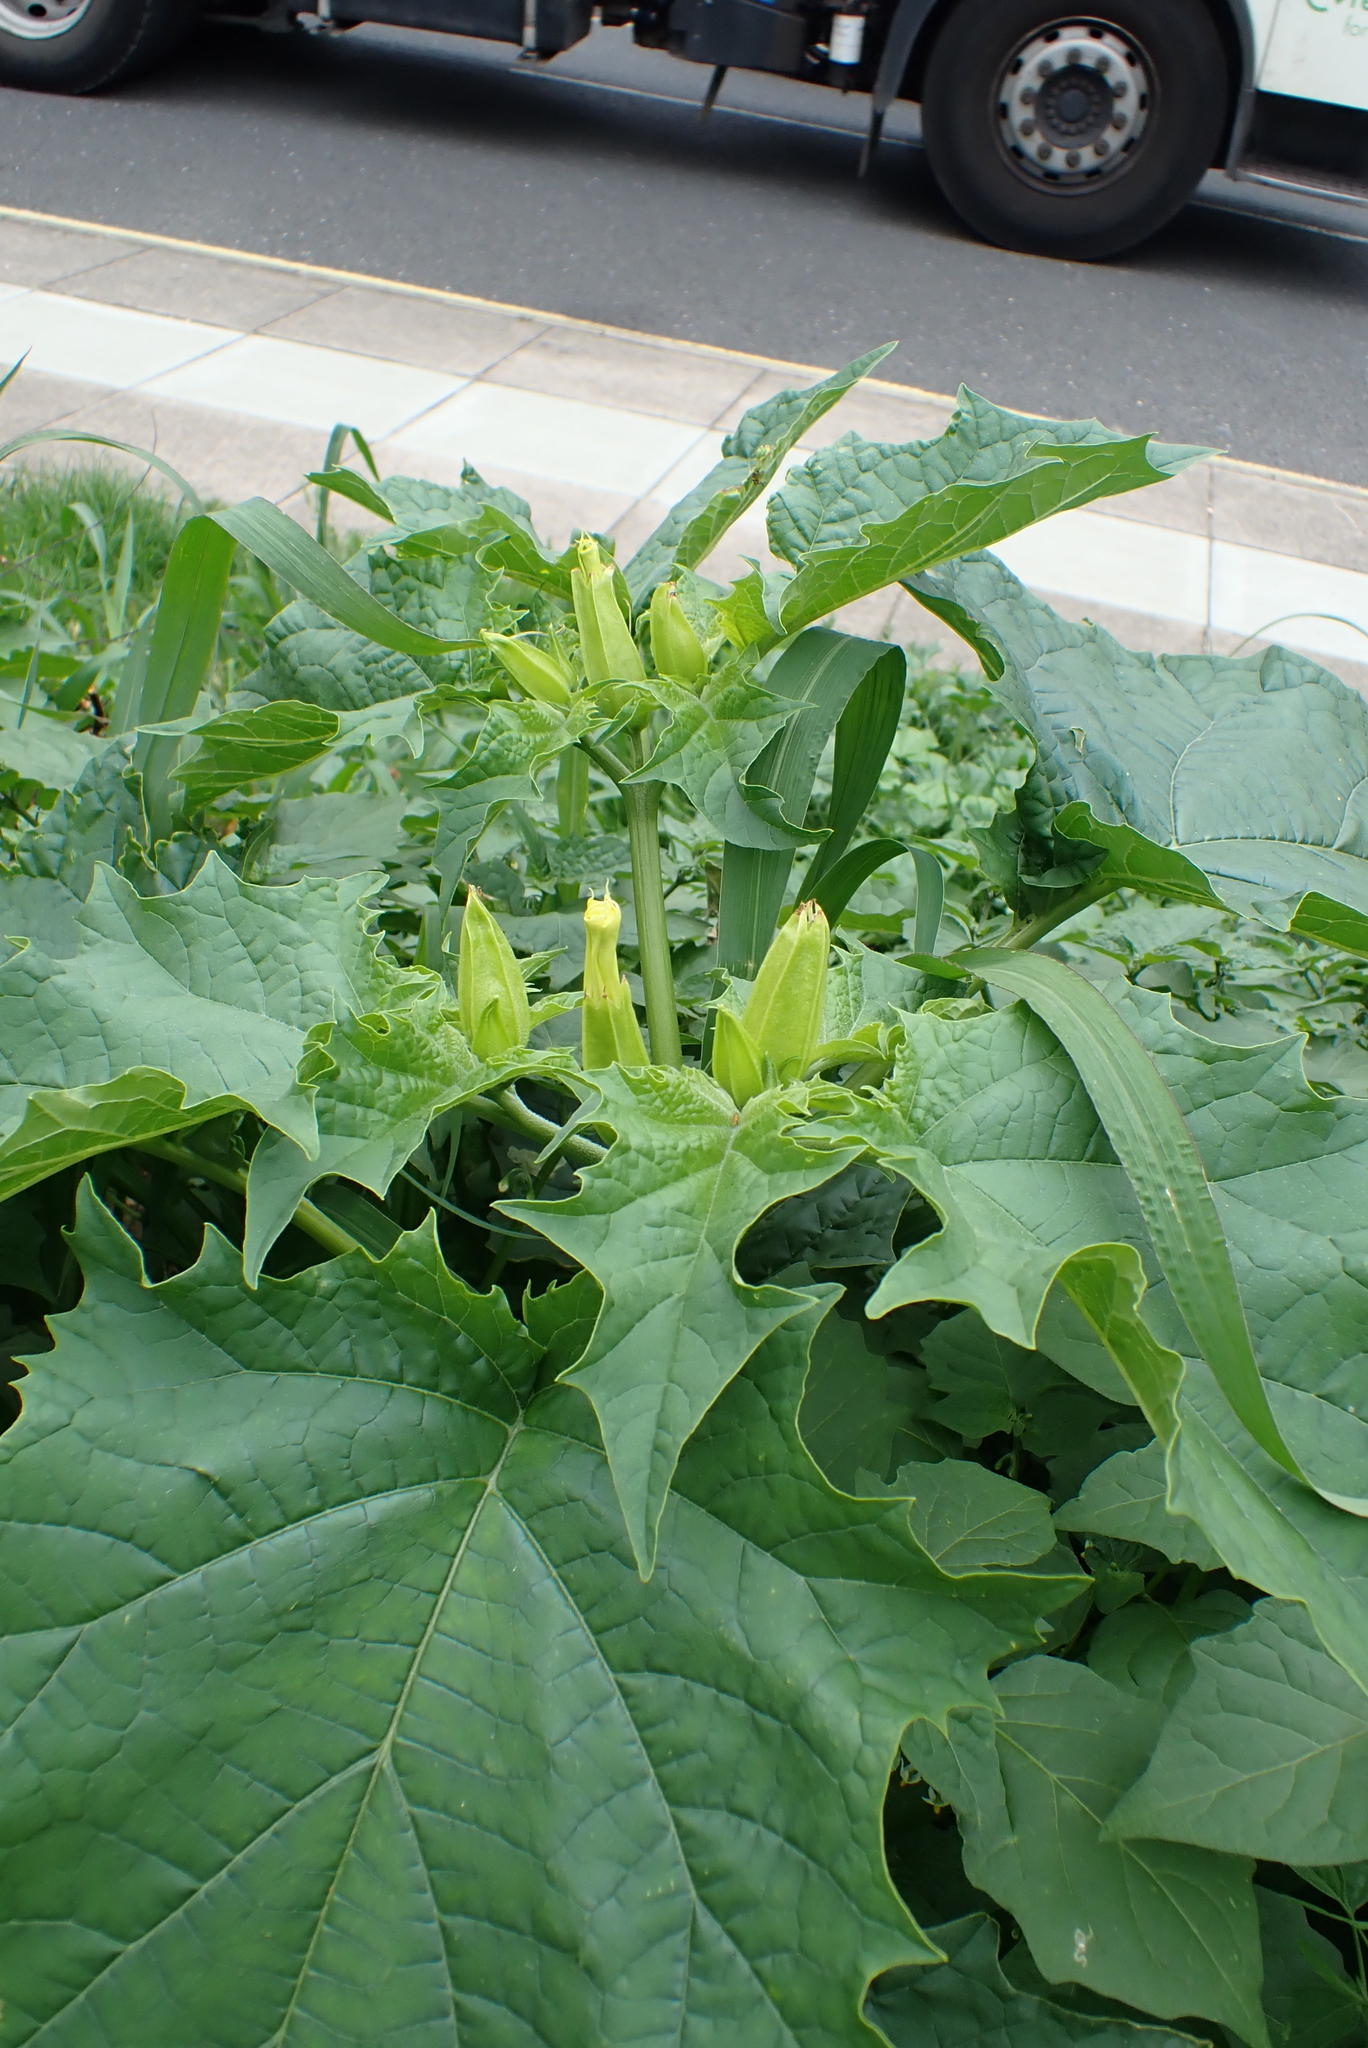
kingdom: Plantae
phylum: Tracheophyta
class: Magnoliopsida
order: Solanales
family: Solanaceae
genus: Datura
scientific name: Datura stramonium
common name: Thorn-apple
